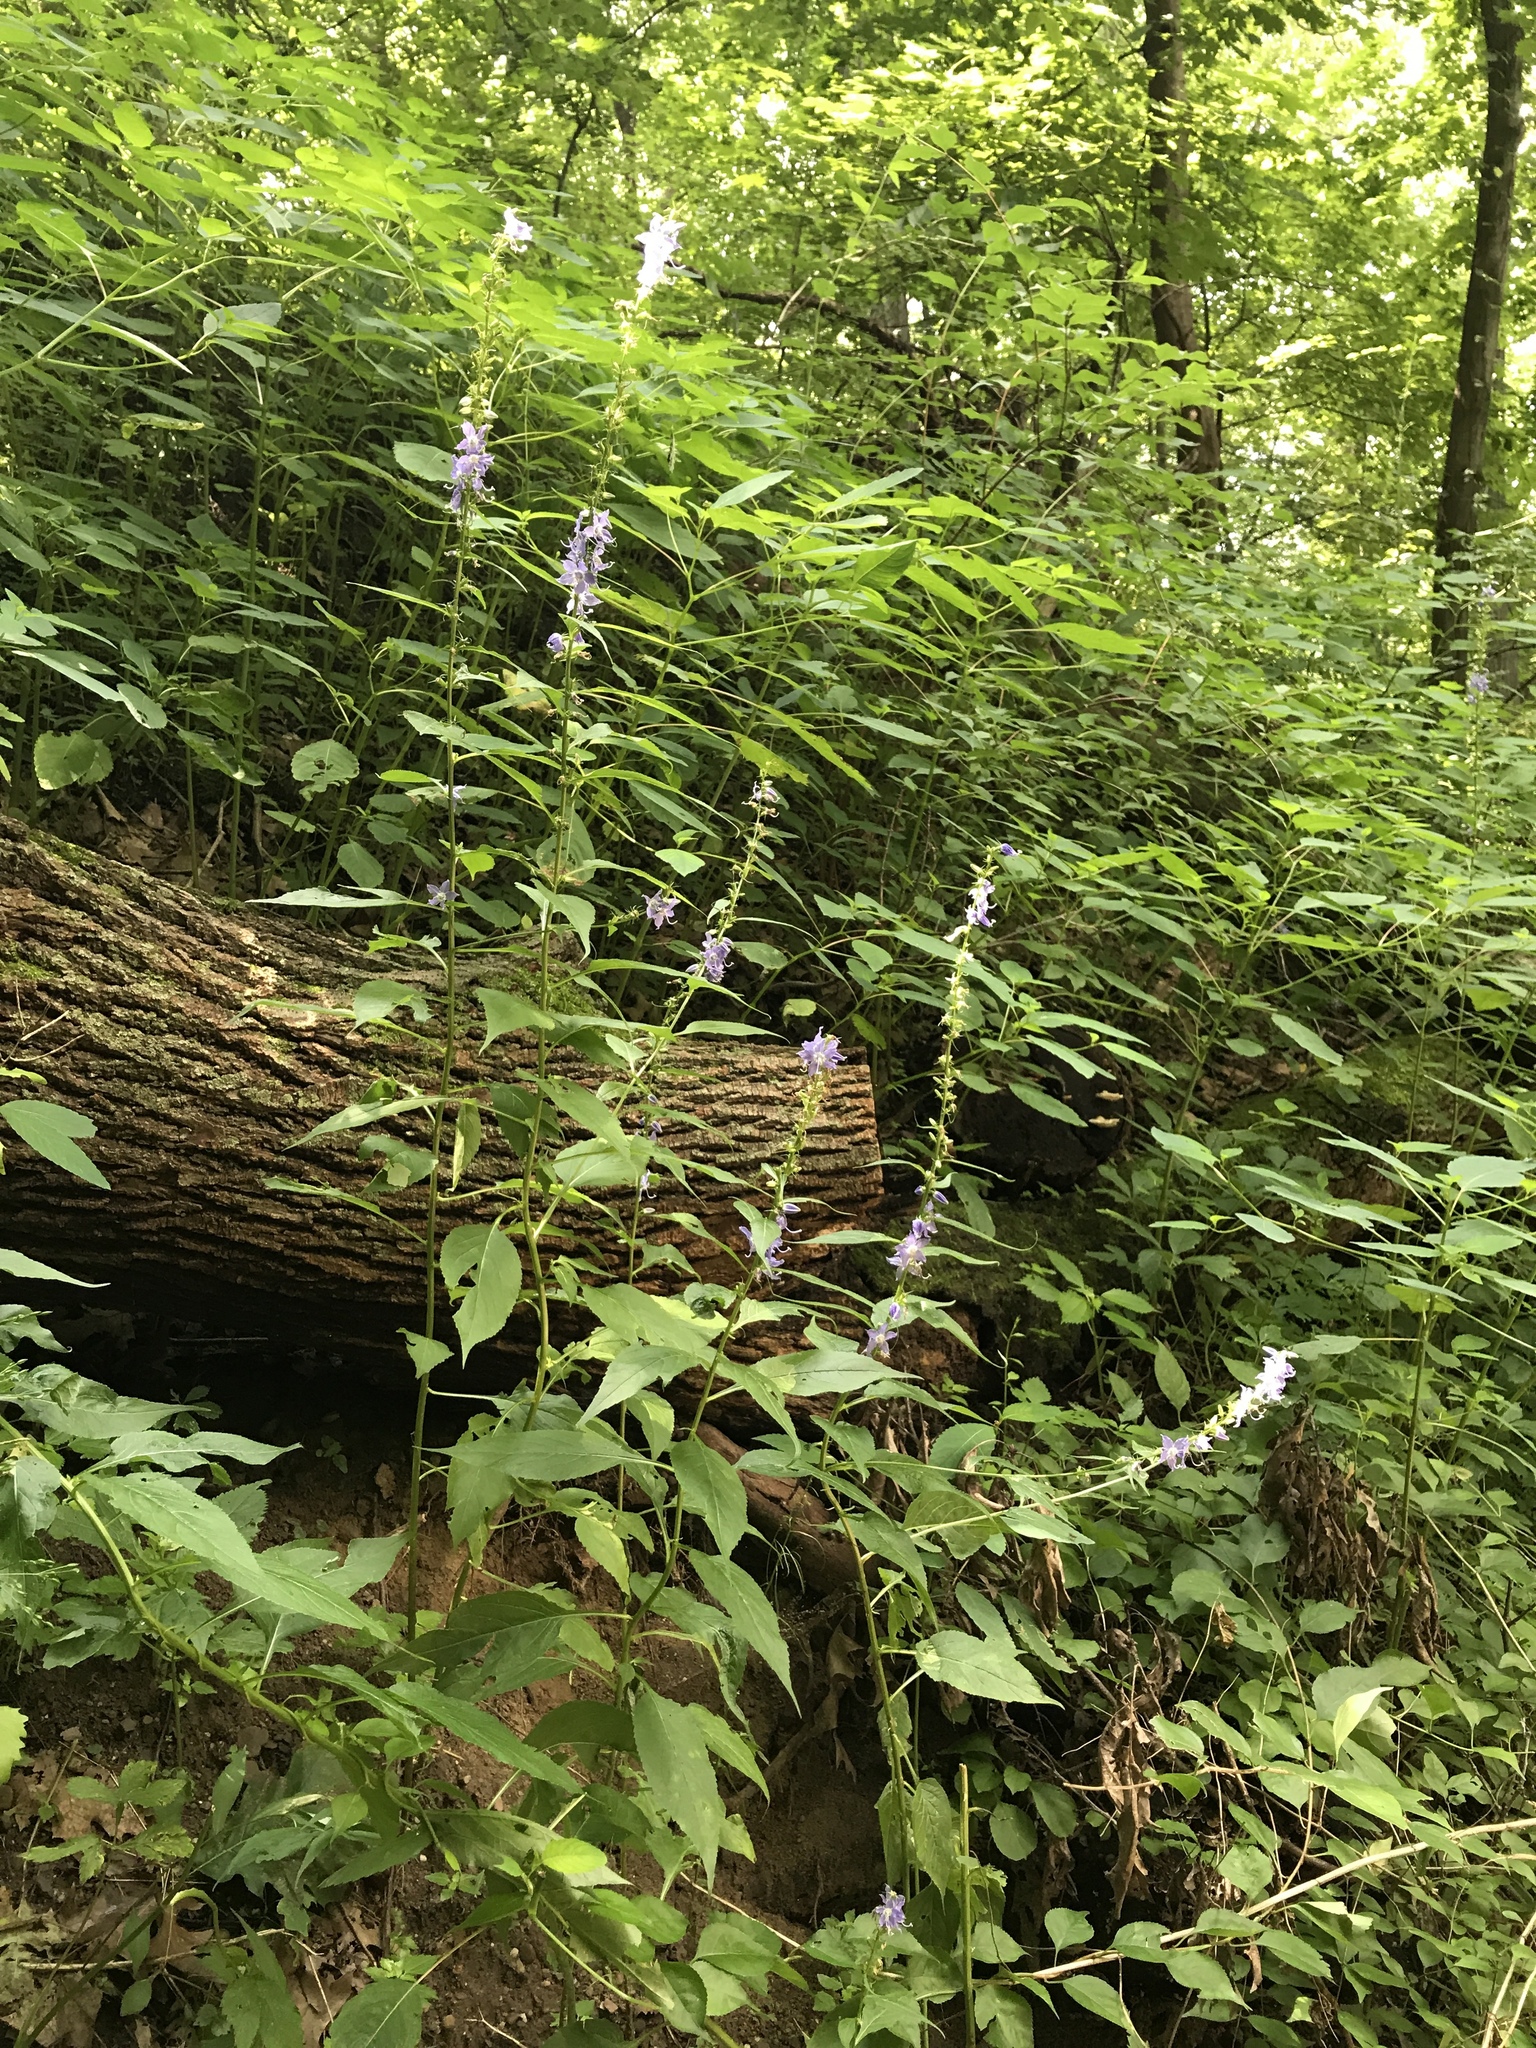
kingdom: Plantae
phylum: Tracheophyta
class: Magnoliopsida
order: Asterales
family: Campanulaceae
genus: Campanulastrum
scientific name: Campanulastrum americanum
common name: American bellflower
